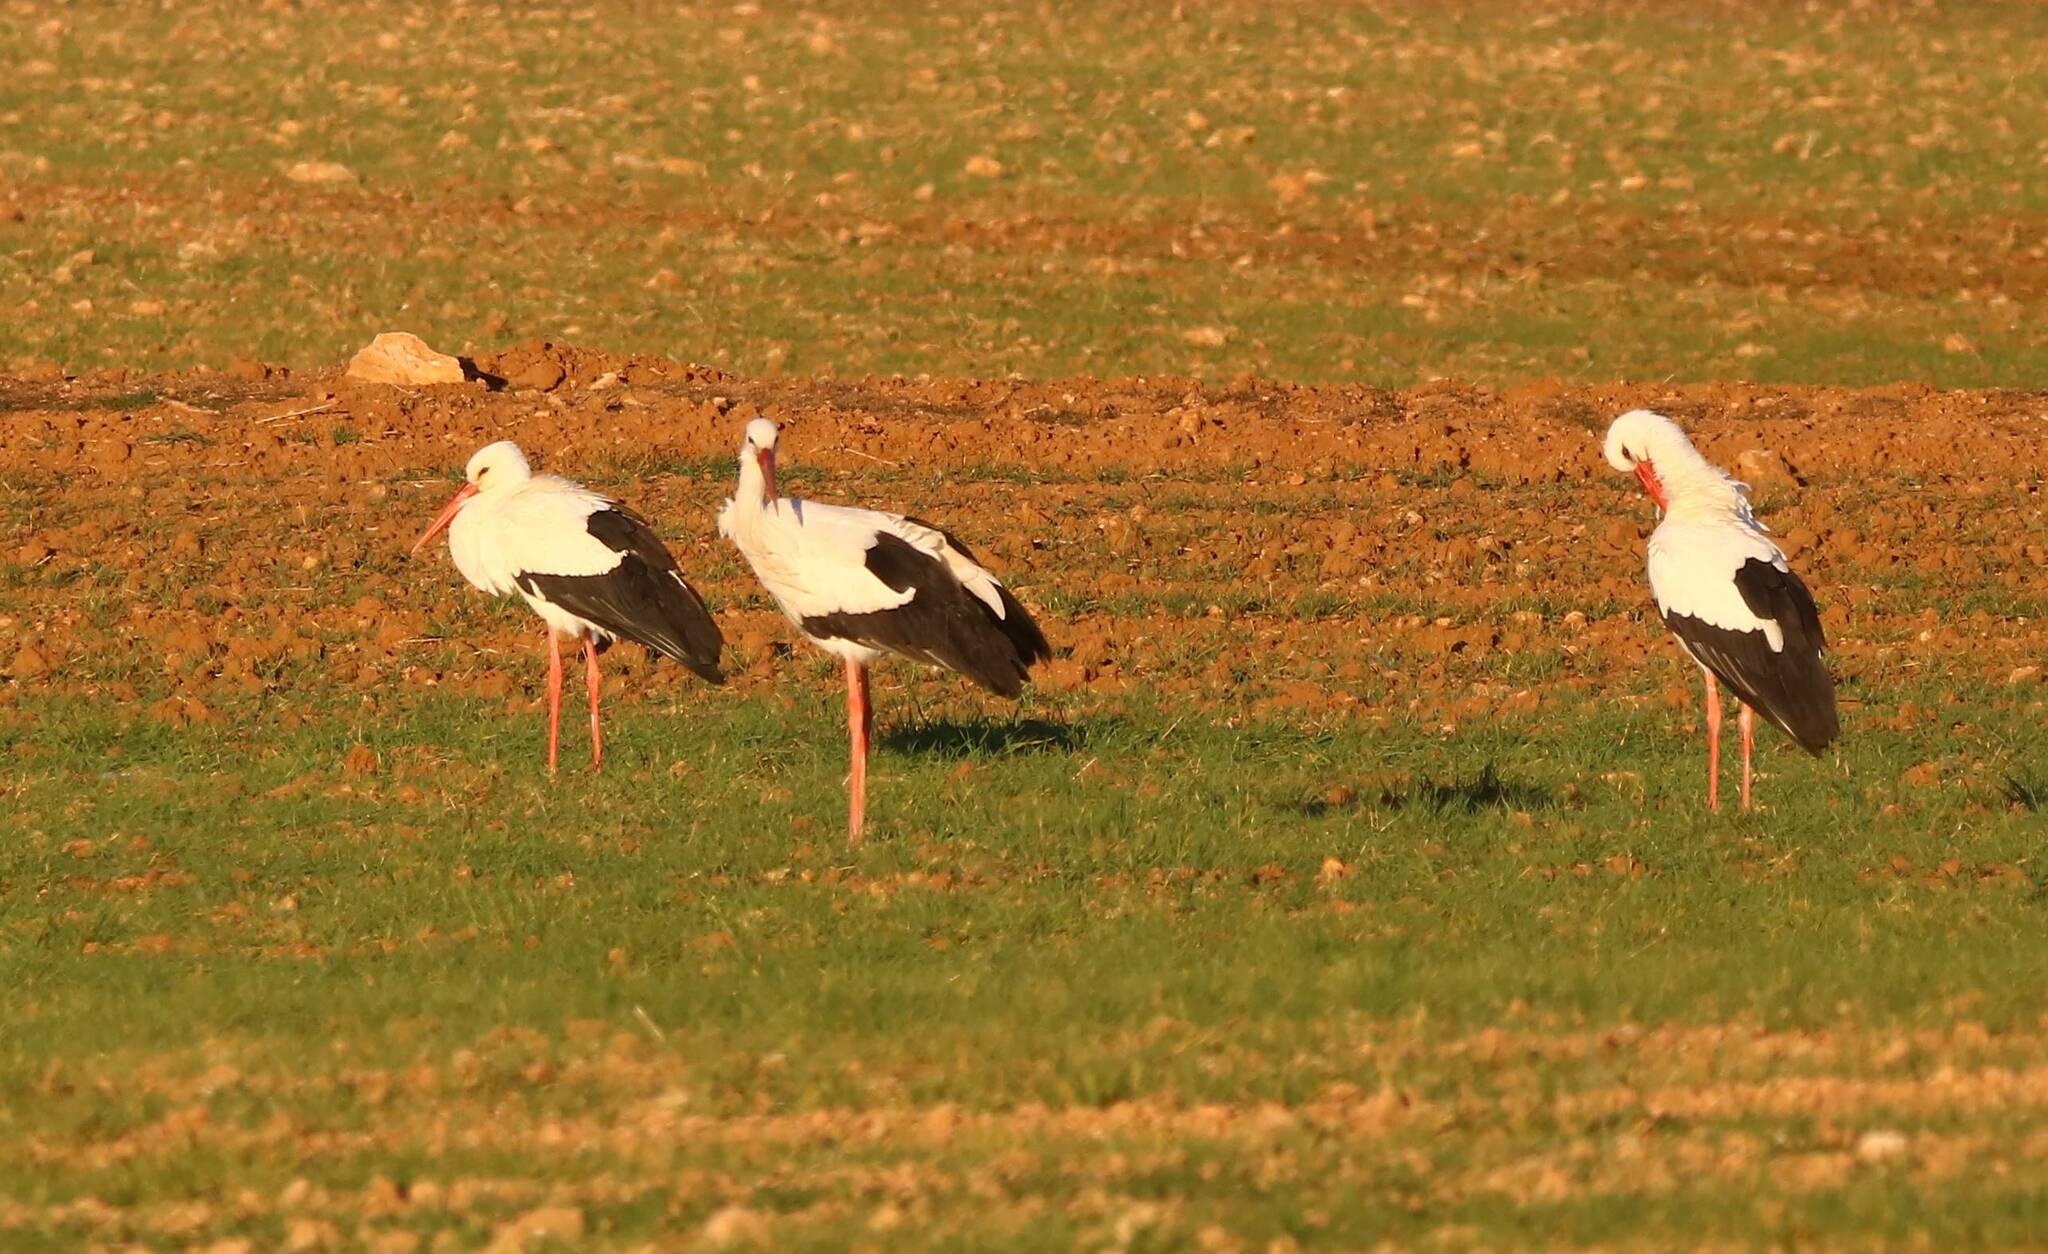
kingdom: Animalia
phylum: Chordata
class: Aves
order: Ciconiiformes
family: Ciconiidae
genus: Ciconia
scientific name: Ciconia ciconia
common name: White stork
